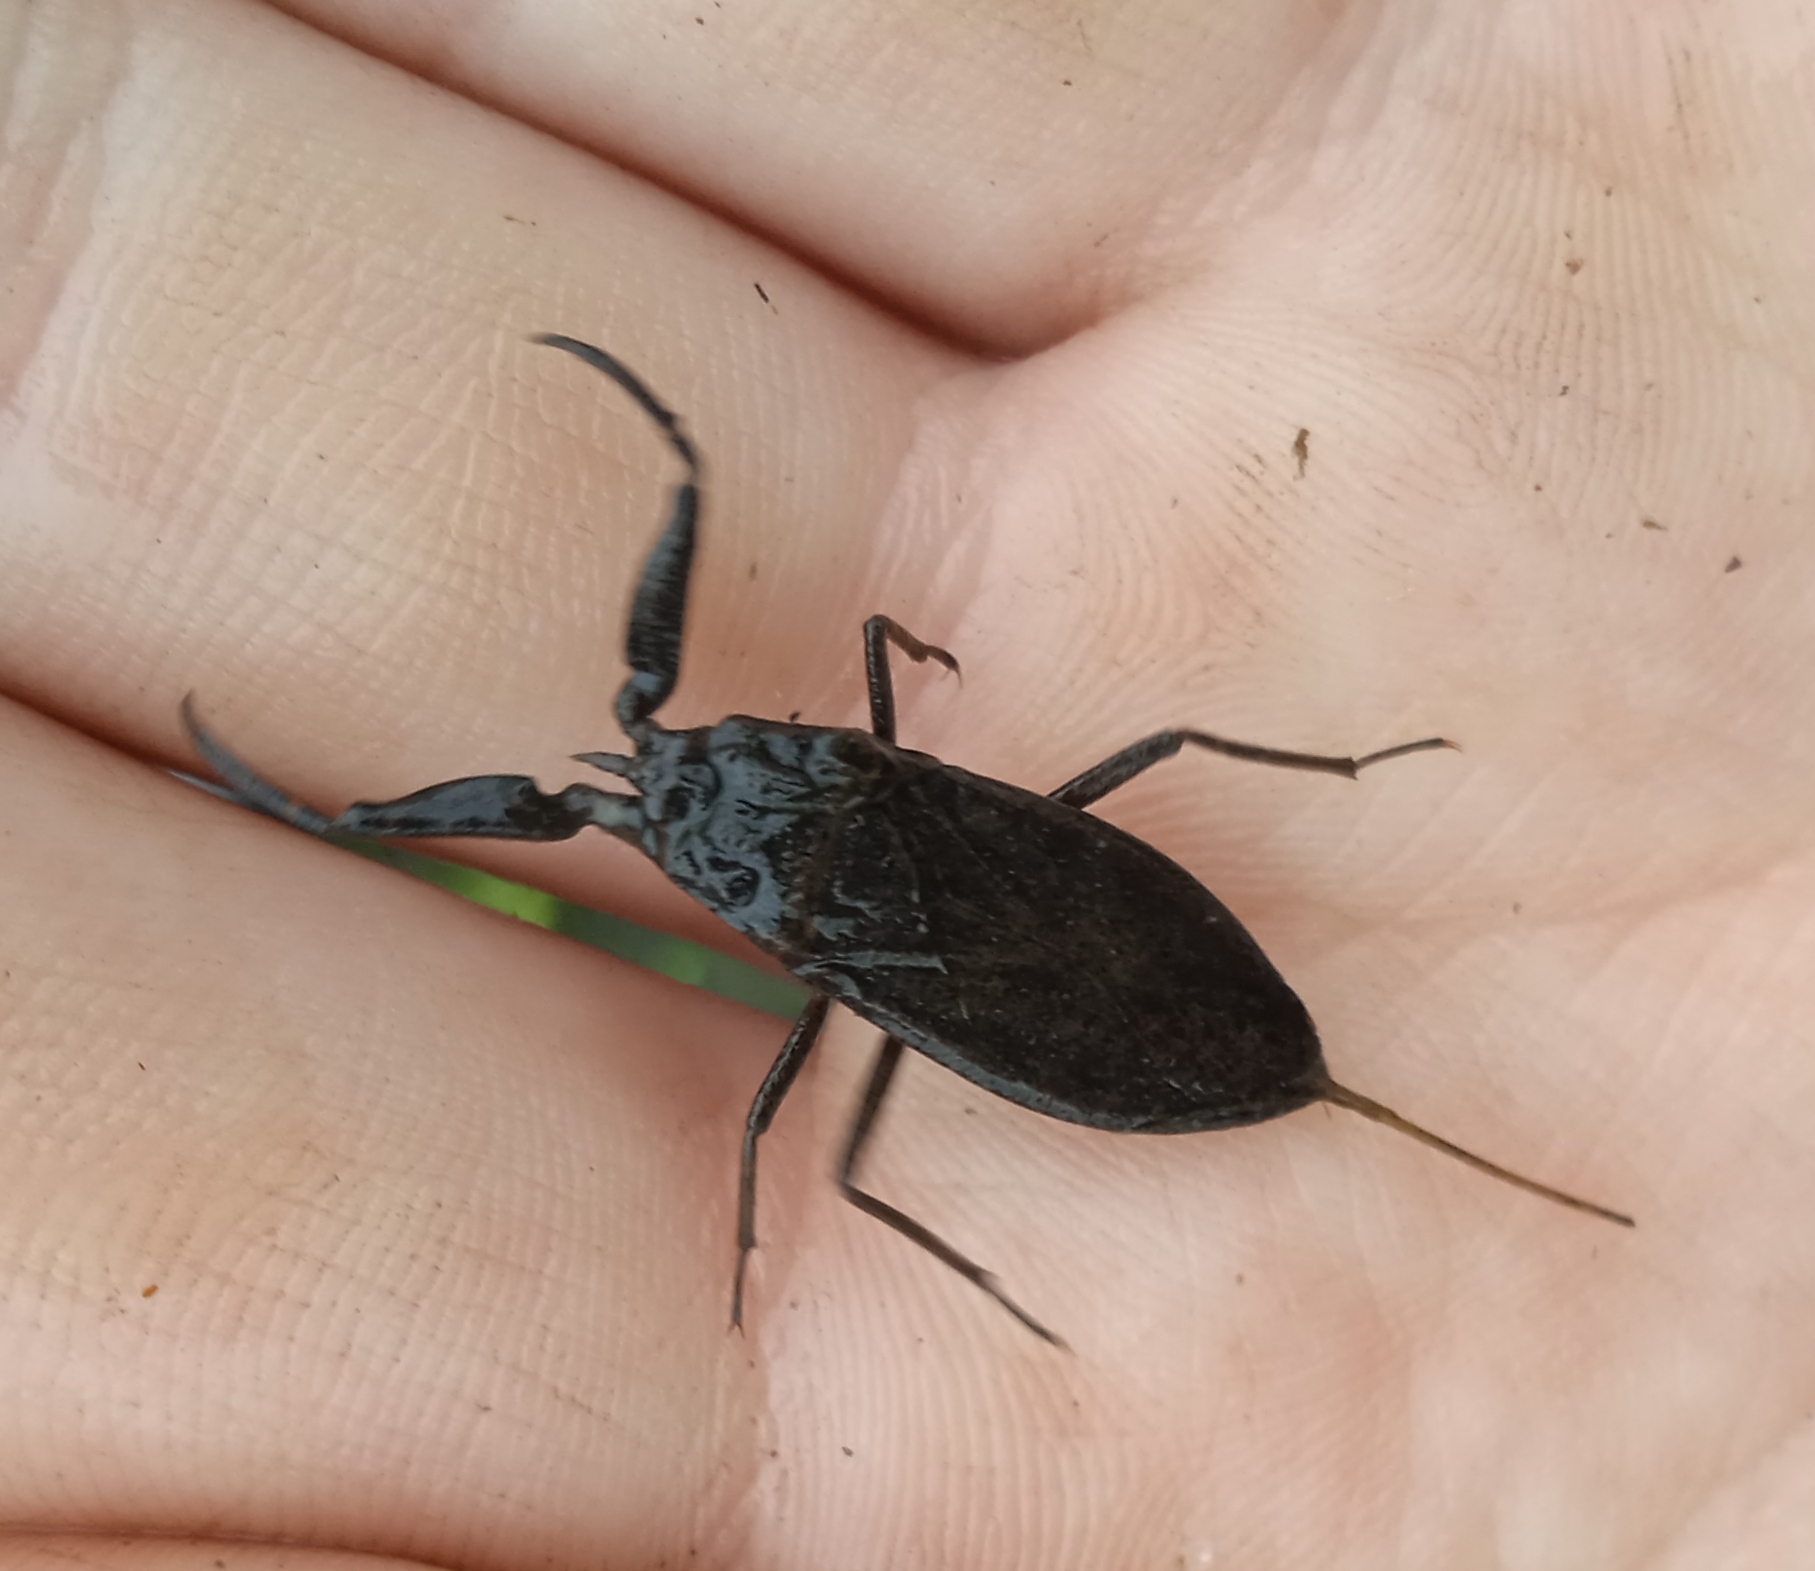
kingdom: Animalia
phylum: Arthropoda
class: Insecta
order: Hemiptera
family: Nepidae
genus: Nepa
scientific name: Nepa cinerea
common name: Water scorpion
